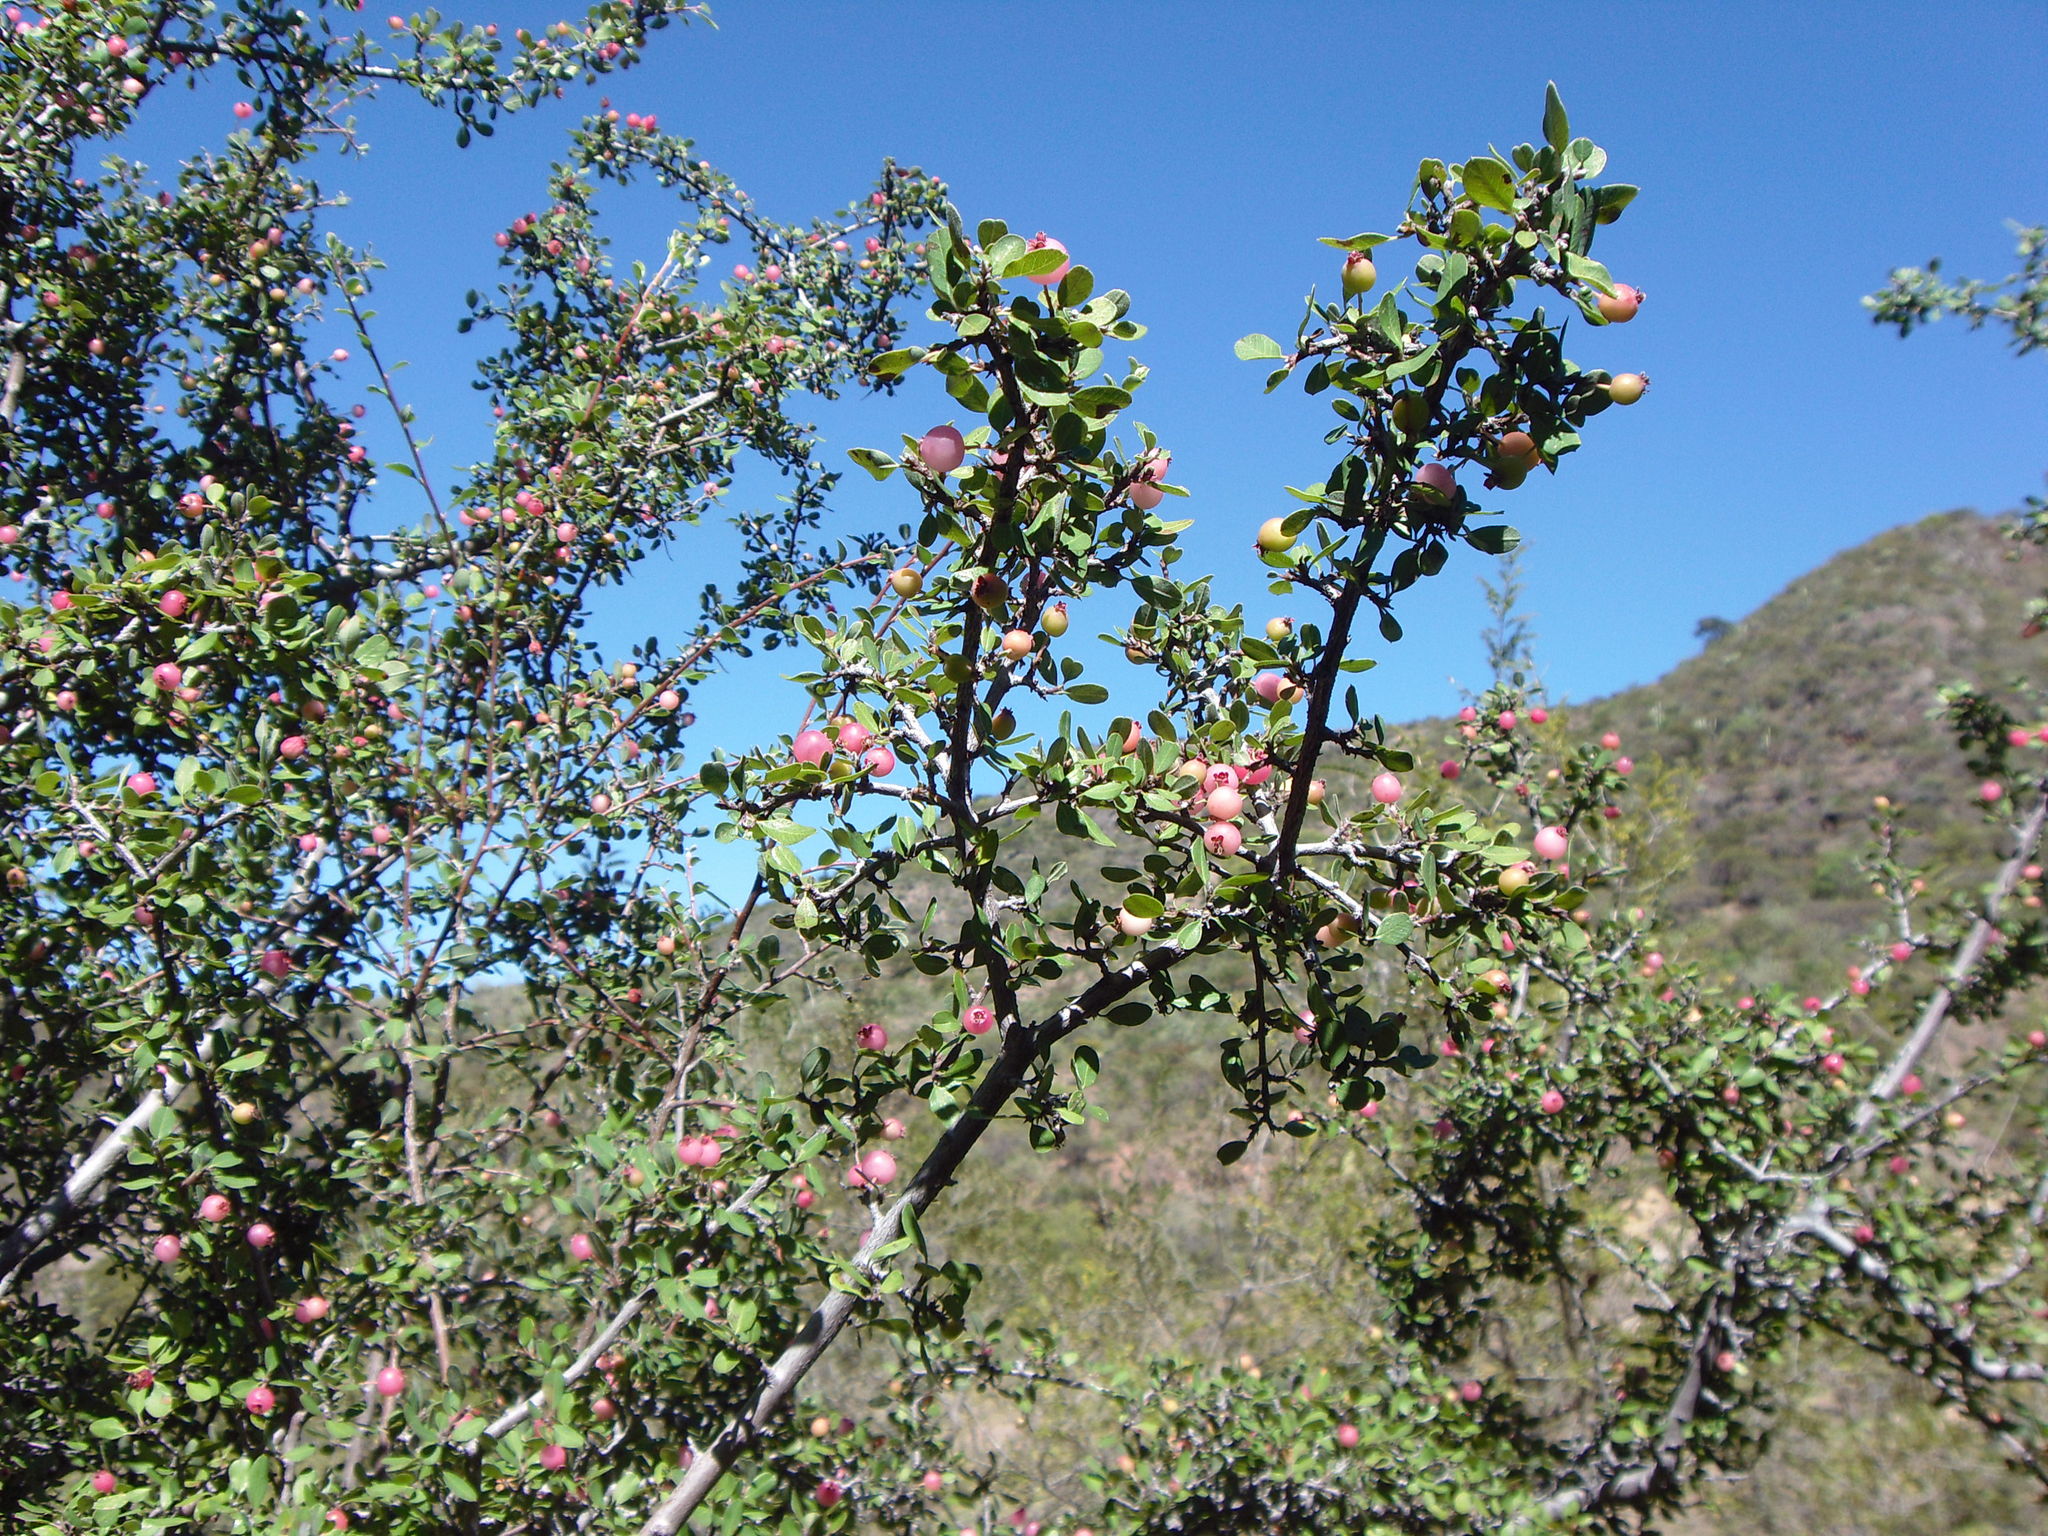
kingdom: Plantae
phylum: Tracheophyta
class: Magnoliopsida
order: Rosales
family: Rosaceae
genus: Malacomeles
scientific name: Malacomeles denticulata
